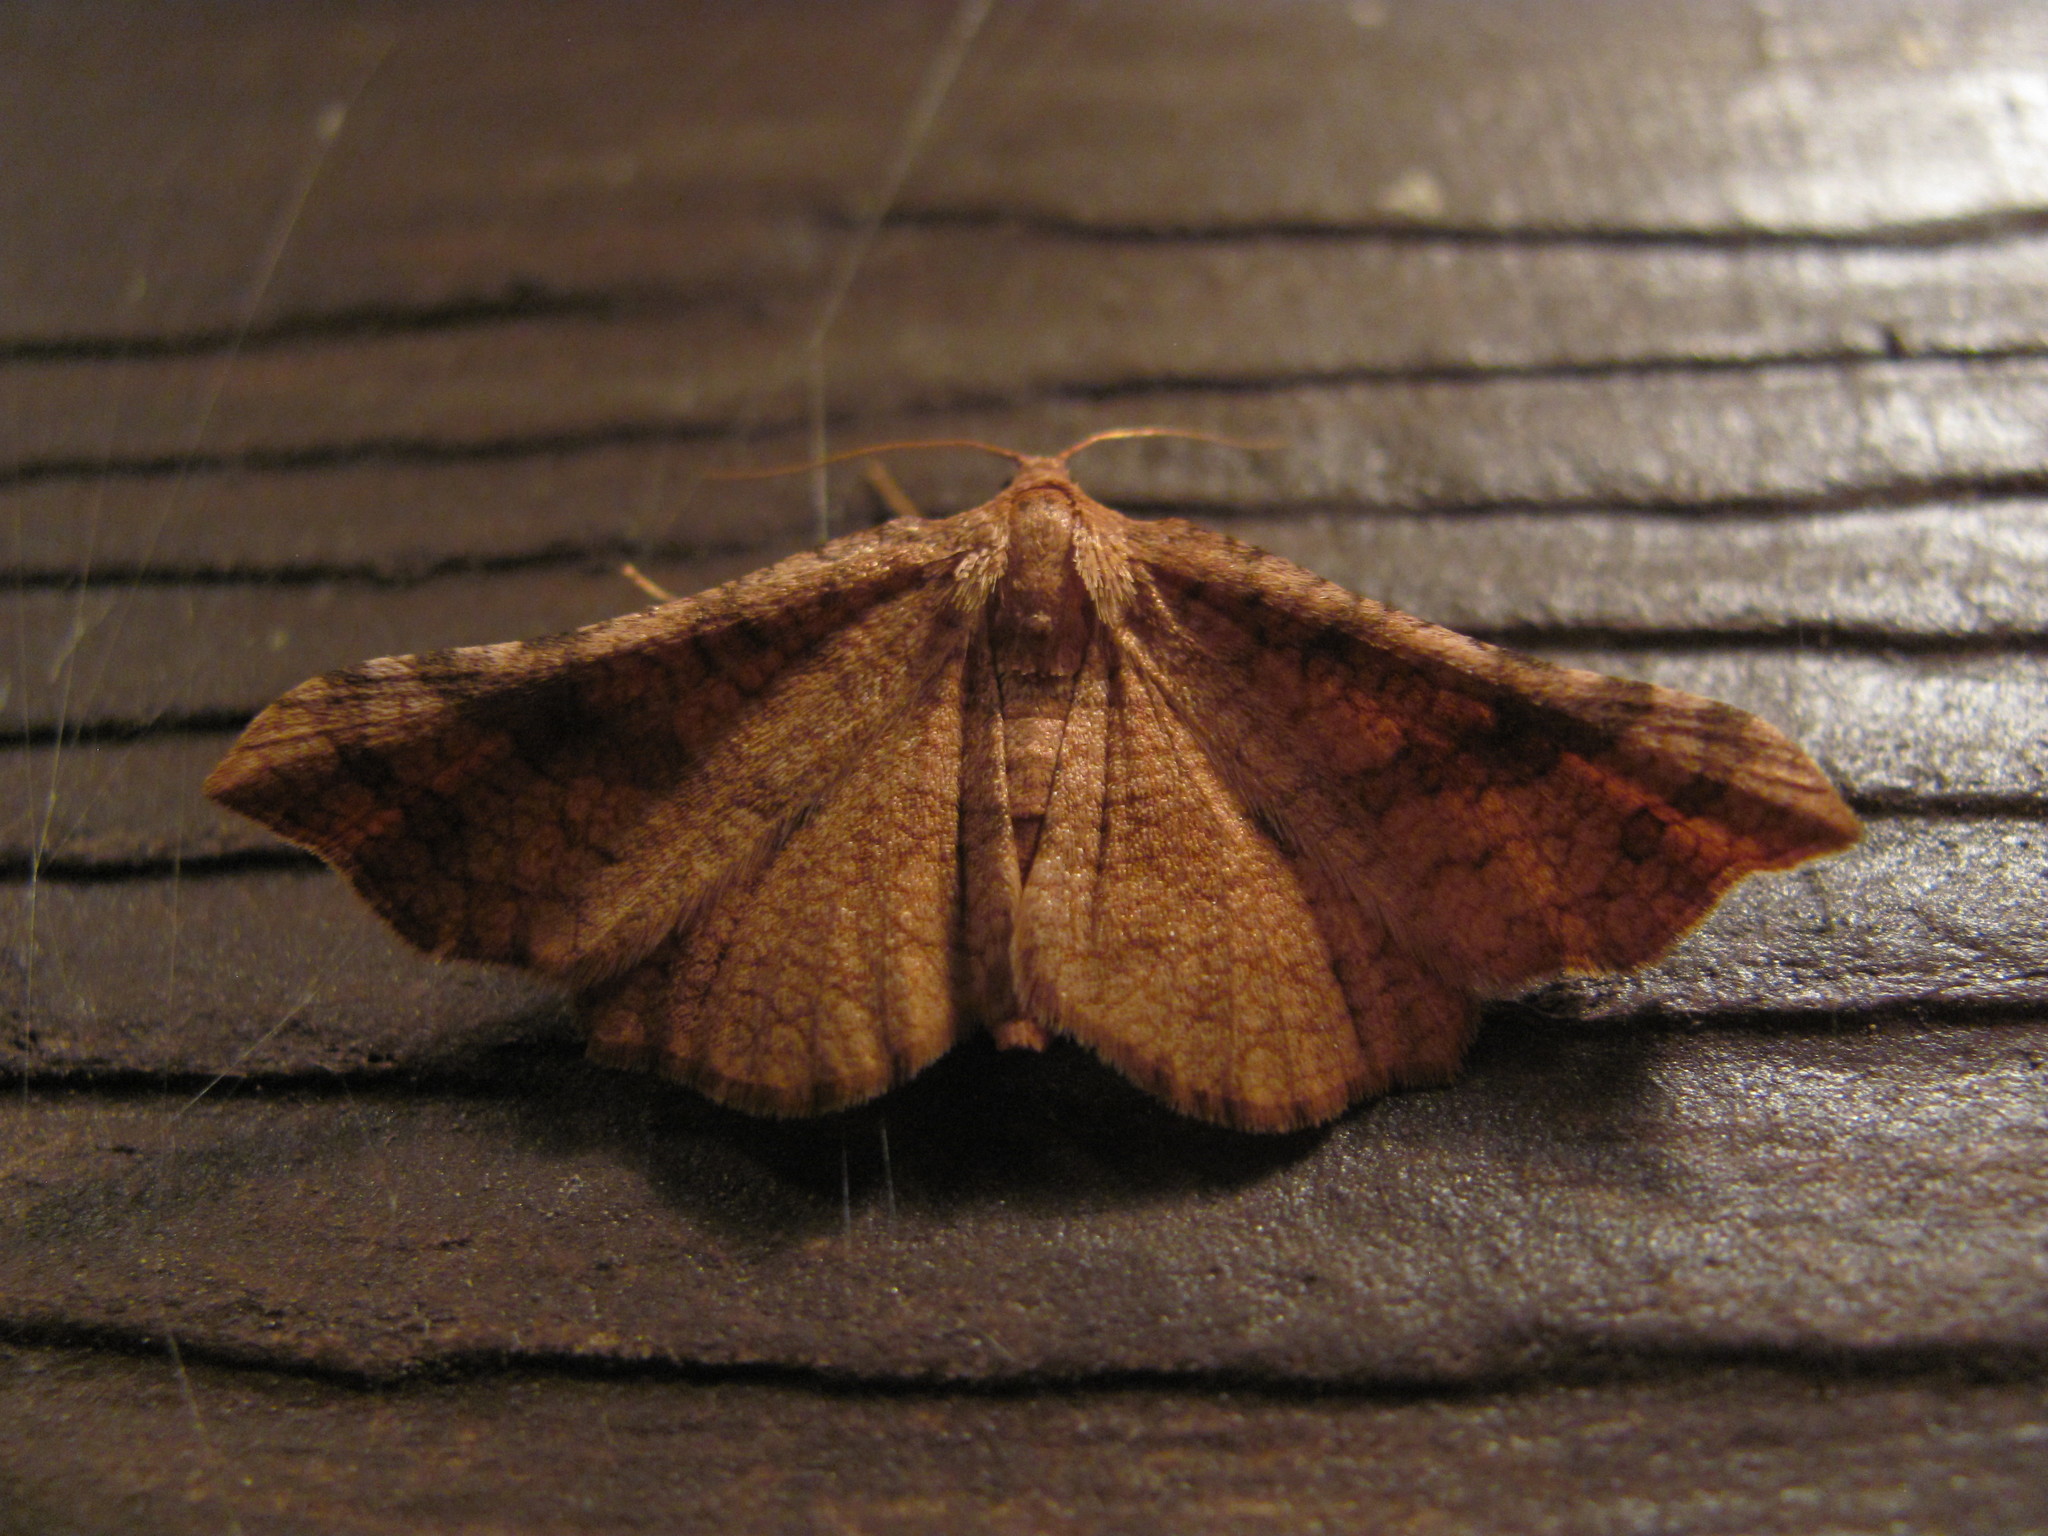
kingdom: Animalia
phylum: Arthropoda
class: Insecta
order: Lepidoptera
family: Thyrididae
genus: Morova
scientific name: Morova subfasciata
